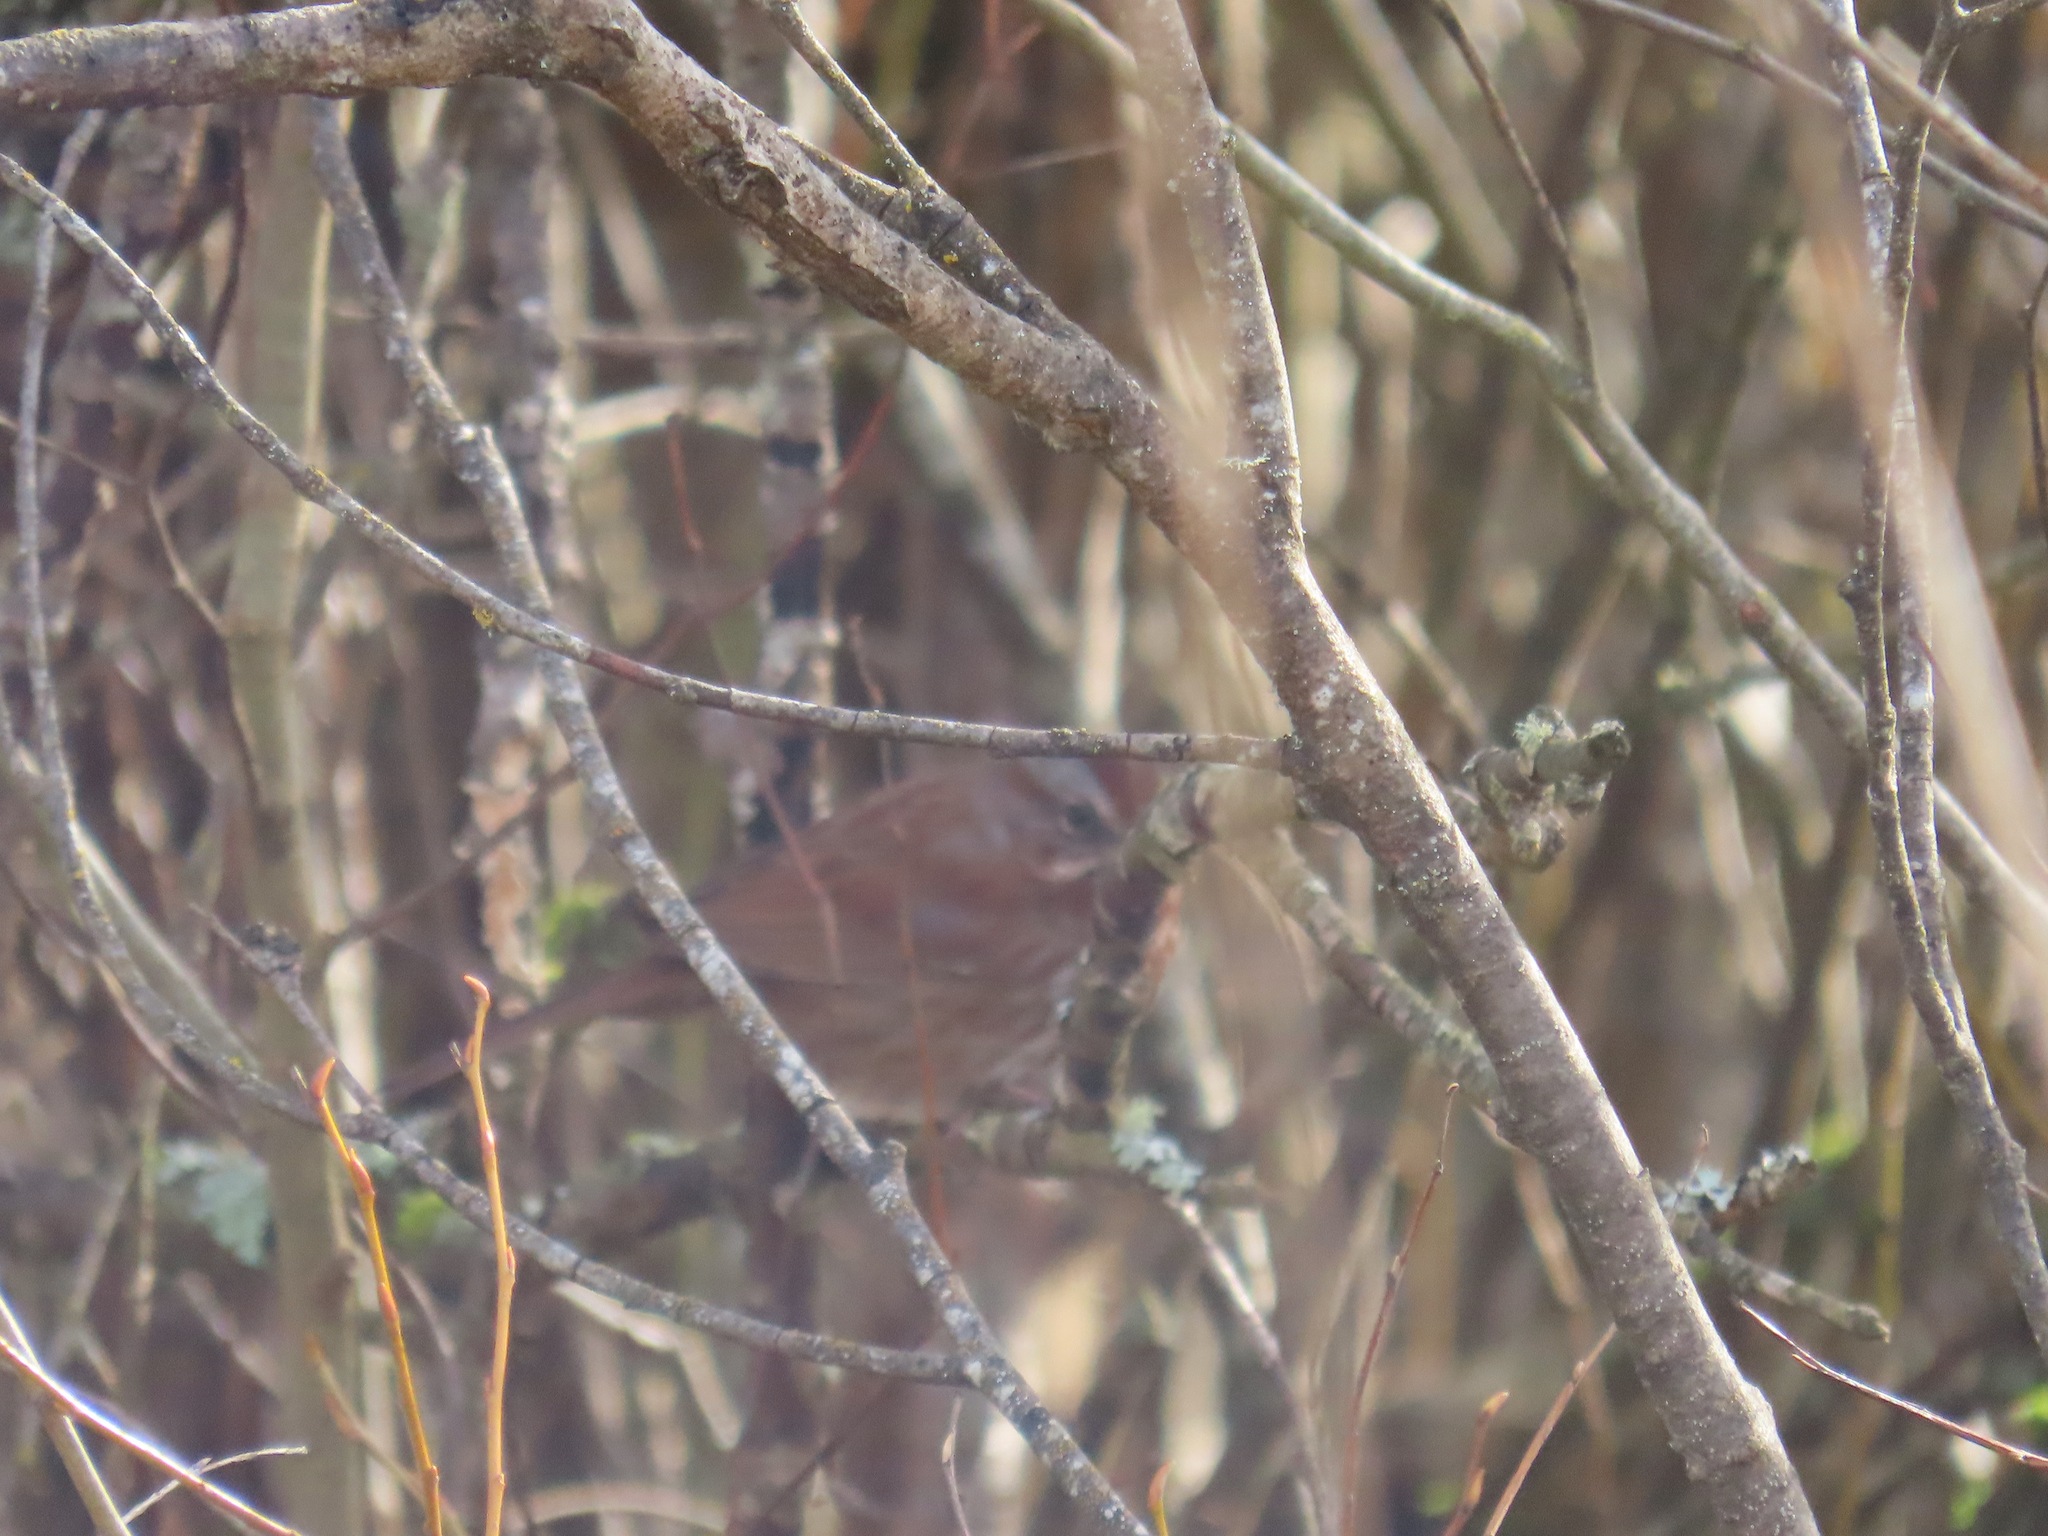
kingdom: Animalia
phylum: Chordata
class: Aves
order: Passeriformes
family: Passerellidae
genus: Melospiza
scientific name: Melospiza melodia
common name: Song sparrow
